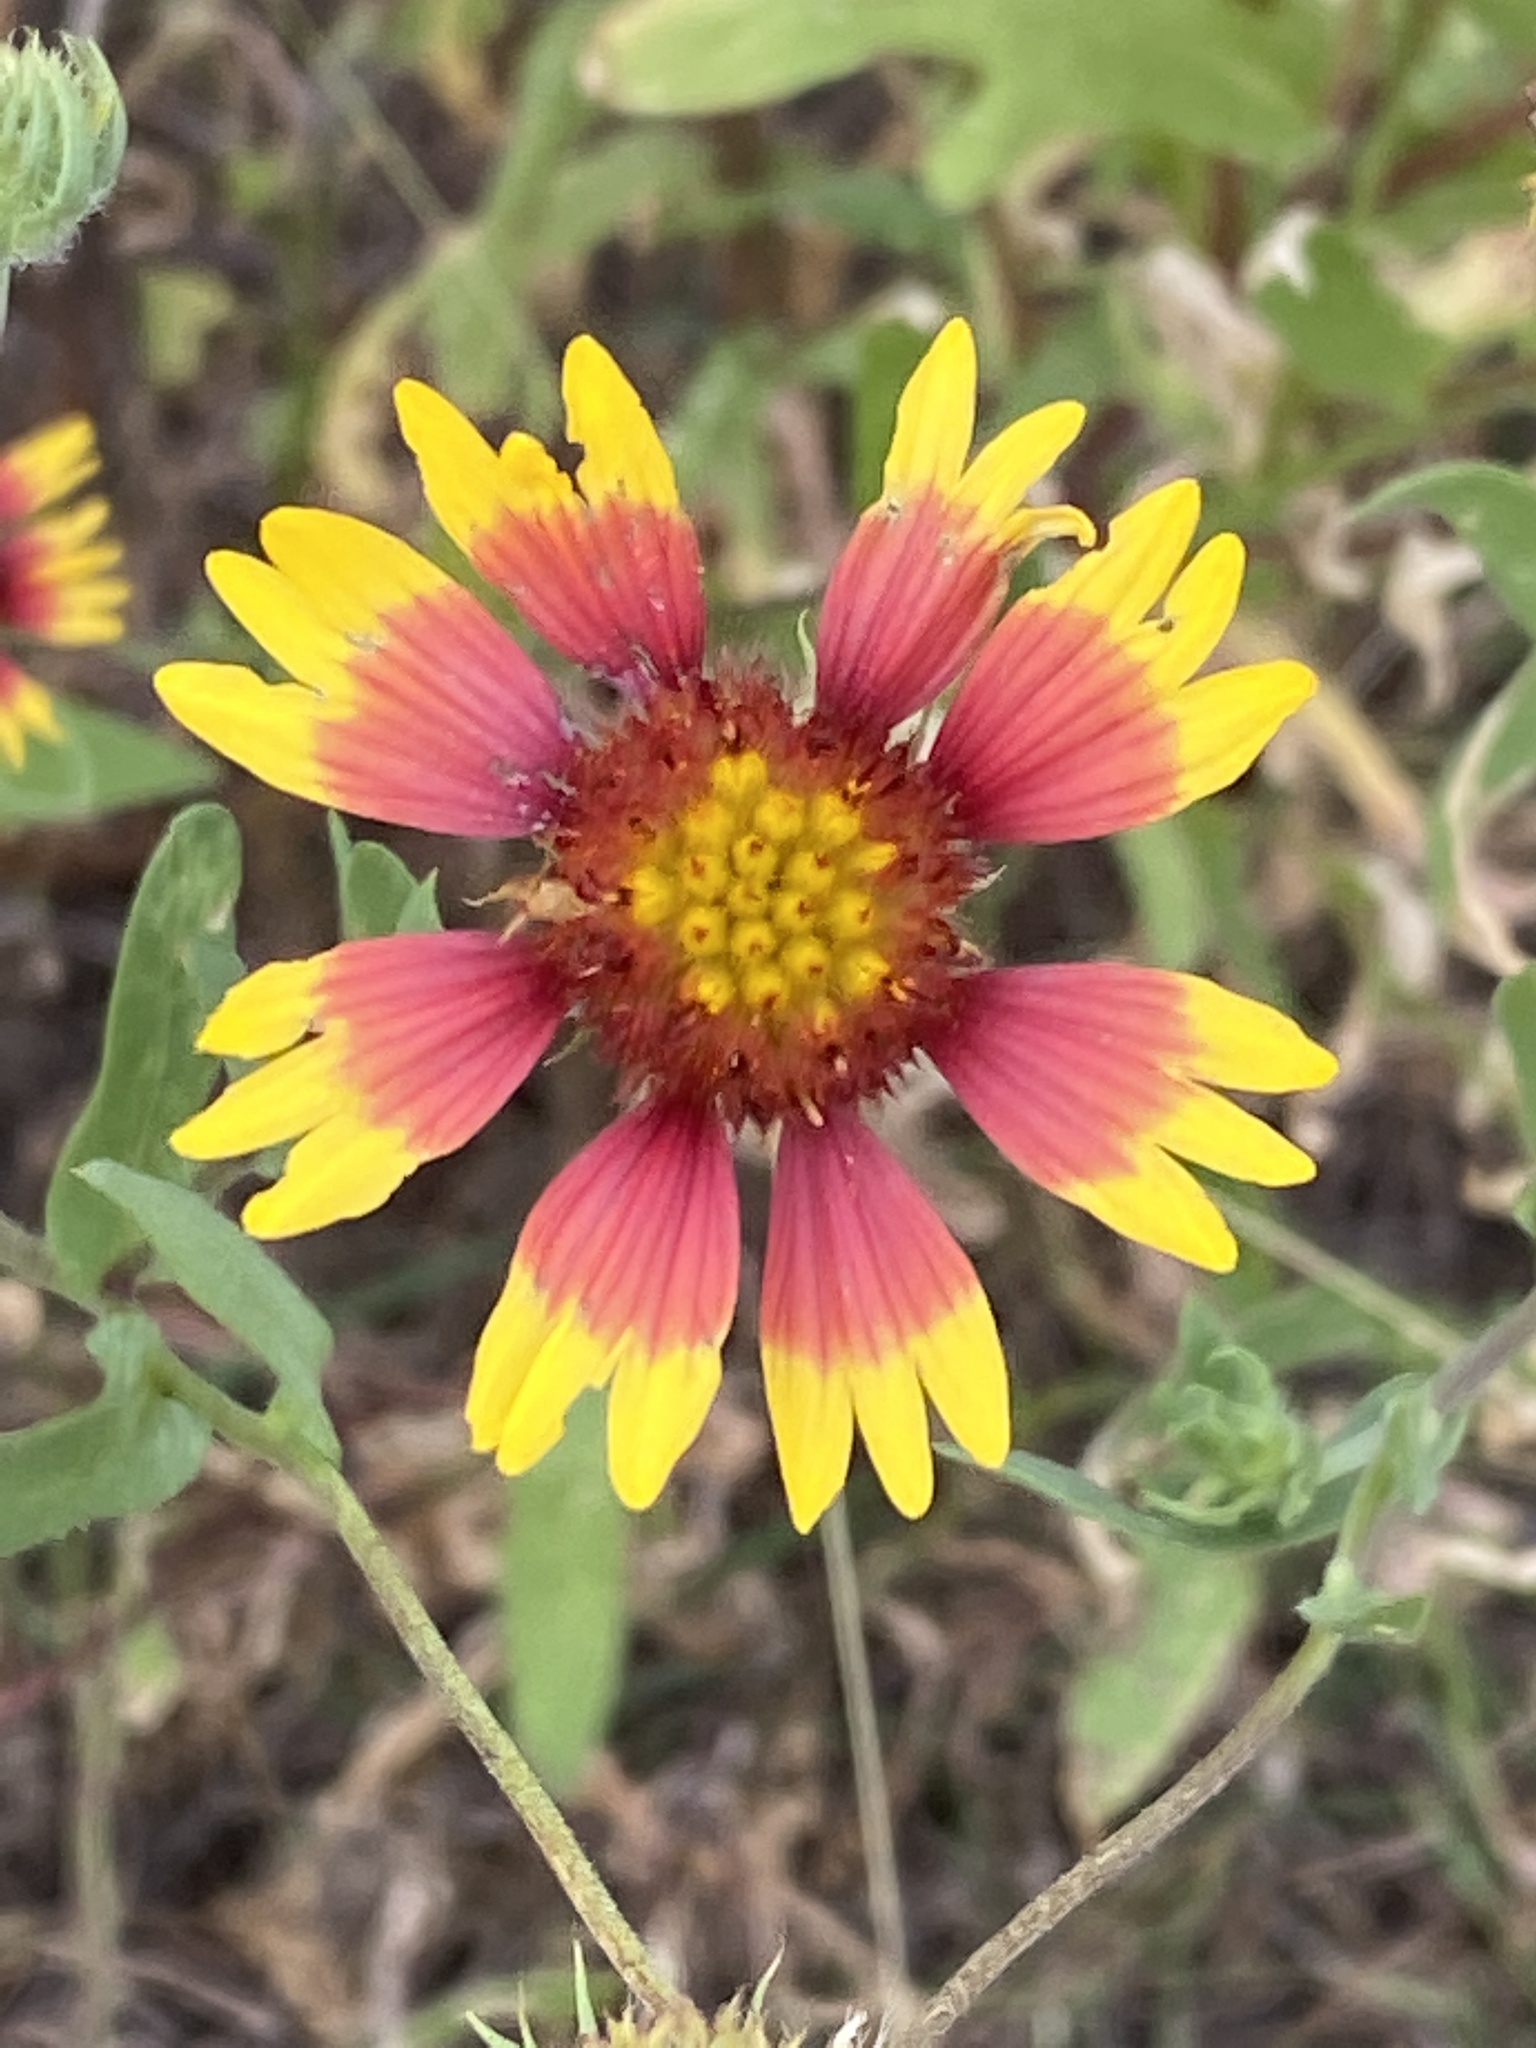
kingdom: Plantae
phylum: Tracheophyta
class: Magnoliopsida
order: Asterales
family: Asteraceae
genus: Gaillardia
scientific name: Gaillardia pulchella
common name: Firewheel
